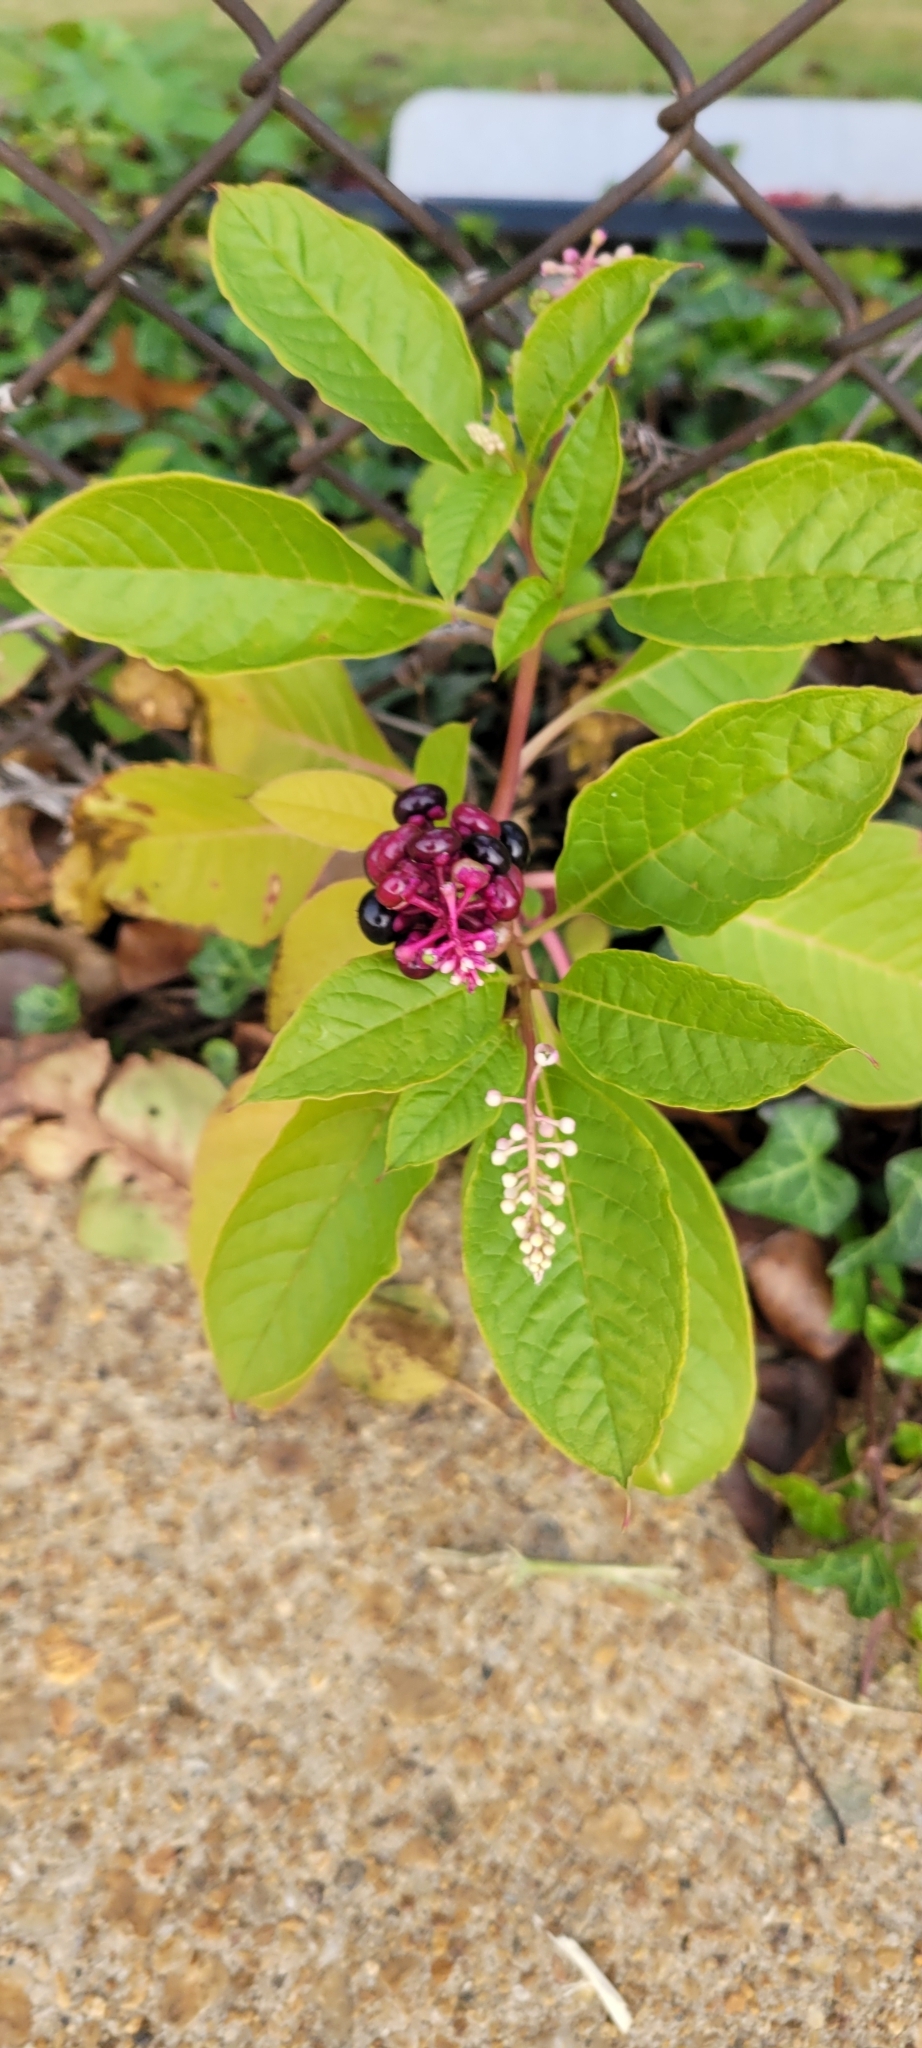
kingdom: Plantae
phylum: Tracheophyta
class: Magnoliopsida
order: Caryophyllales
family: Phytolaccaceae
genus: Phytolacca
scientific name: Phytolacca americana
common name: American pokeweed
